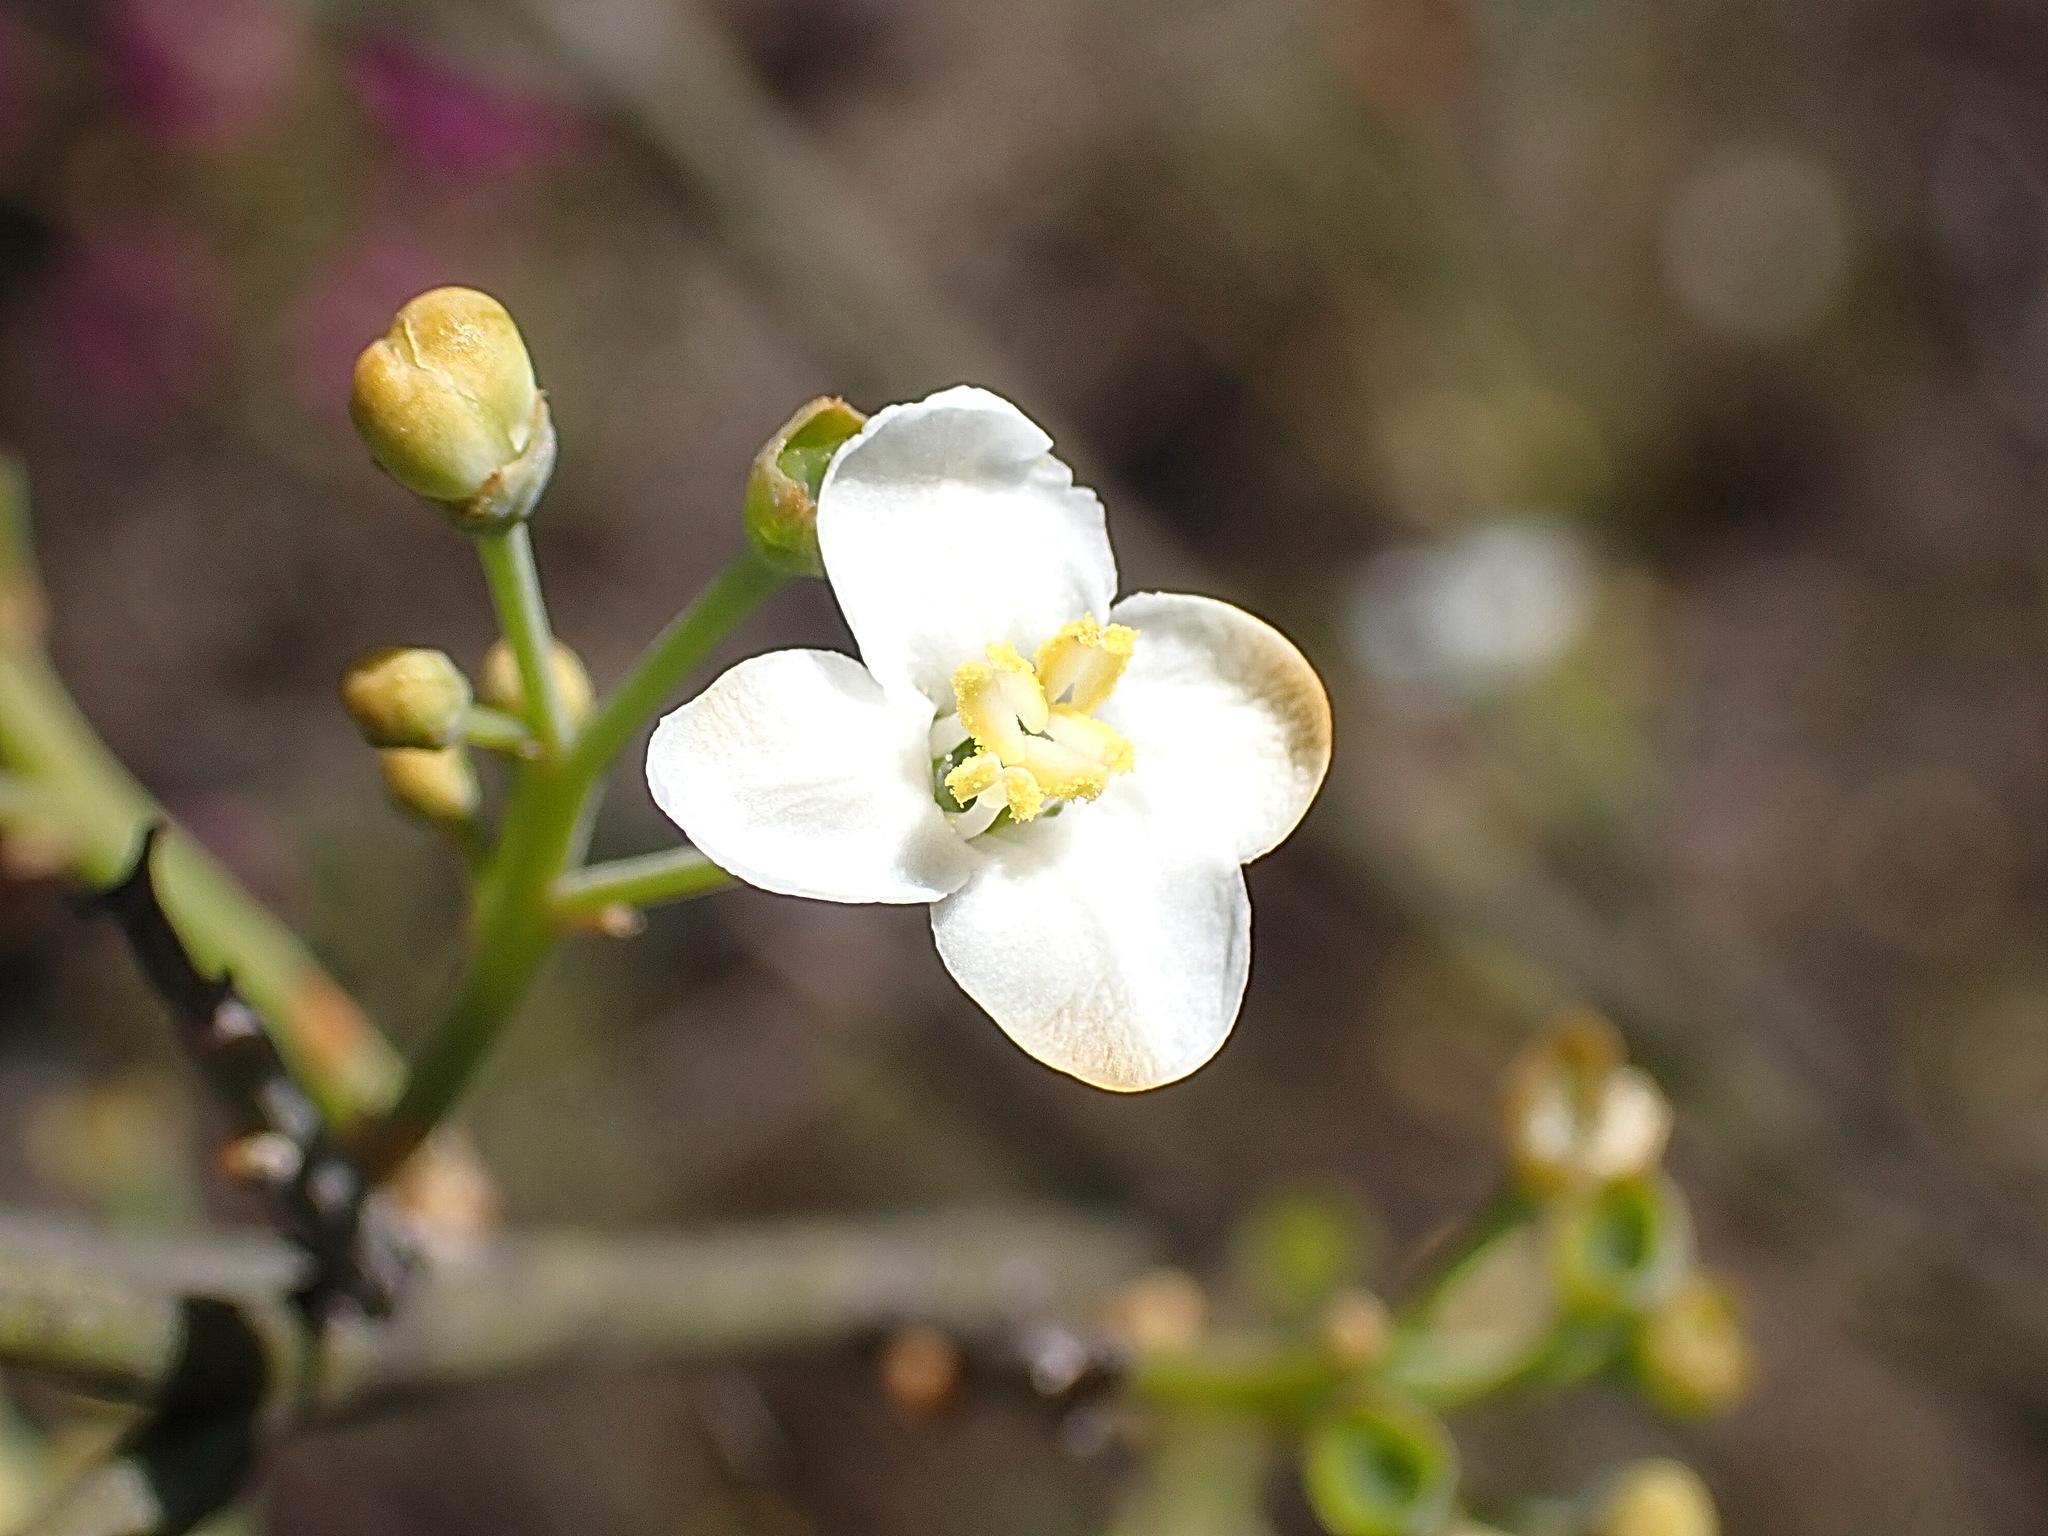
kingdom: Plantae
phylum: Tracheophyta
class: Magnoliopsida
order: Solanales
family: Montiniaceae
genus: Montinia
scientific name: Montinia caryophyllacea
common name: Wild clove-bush
